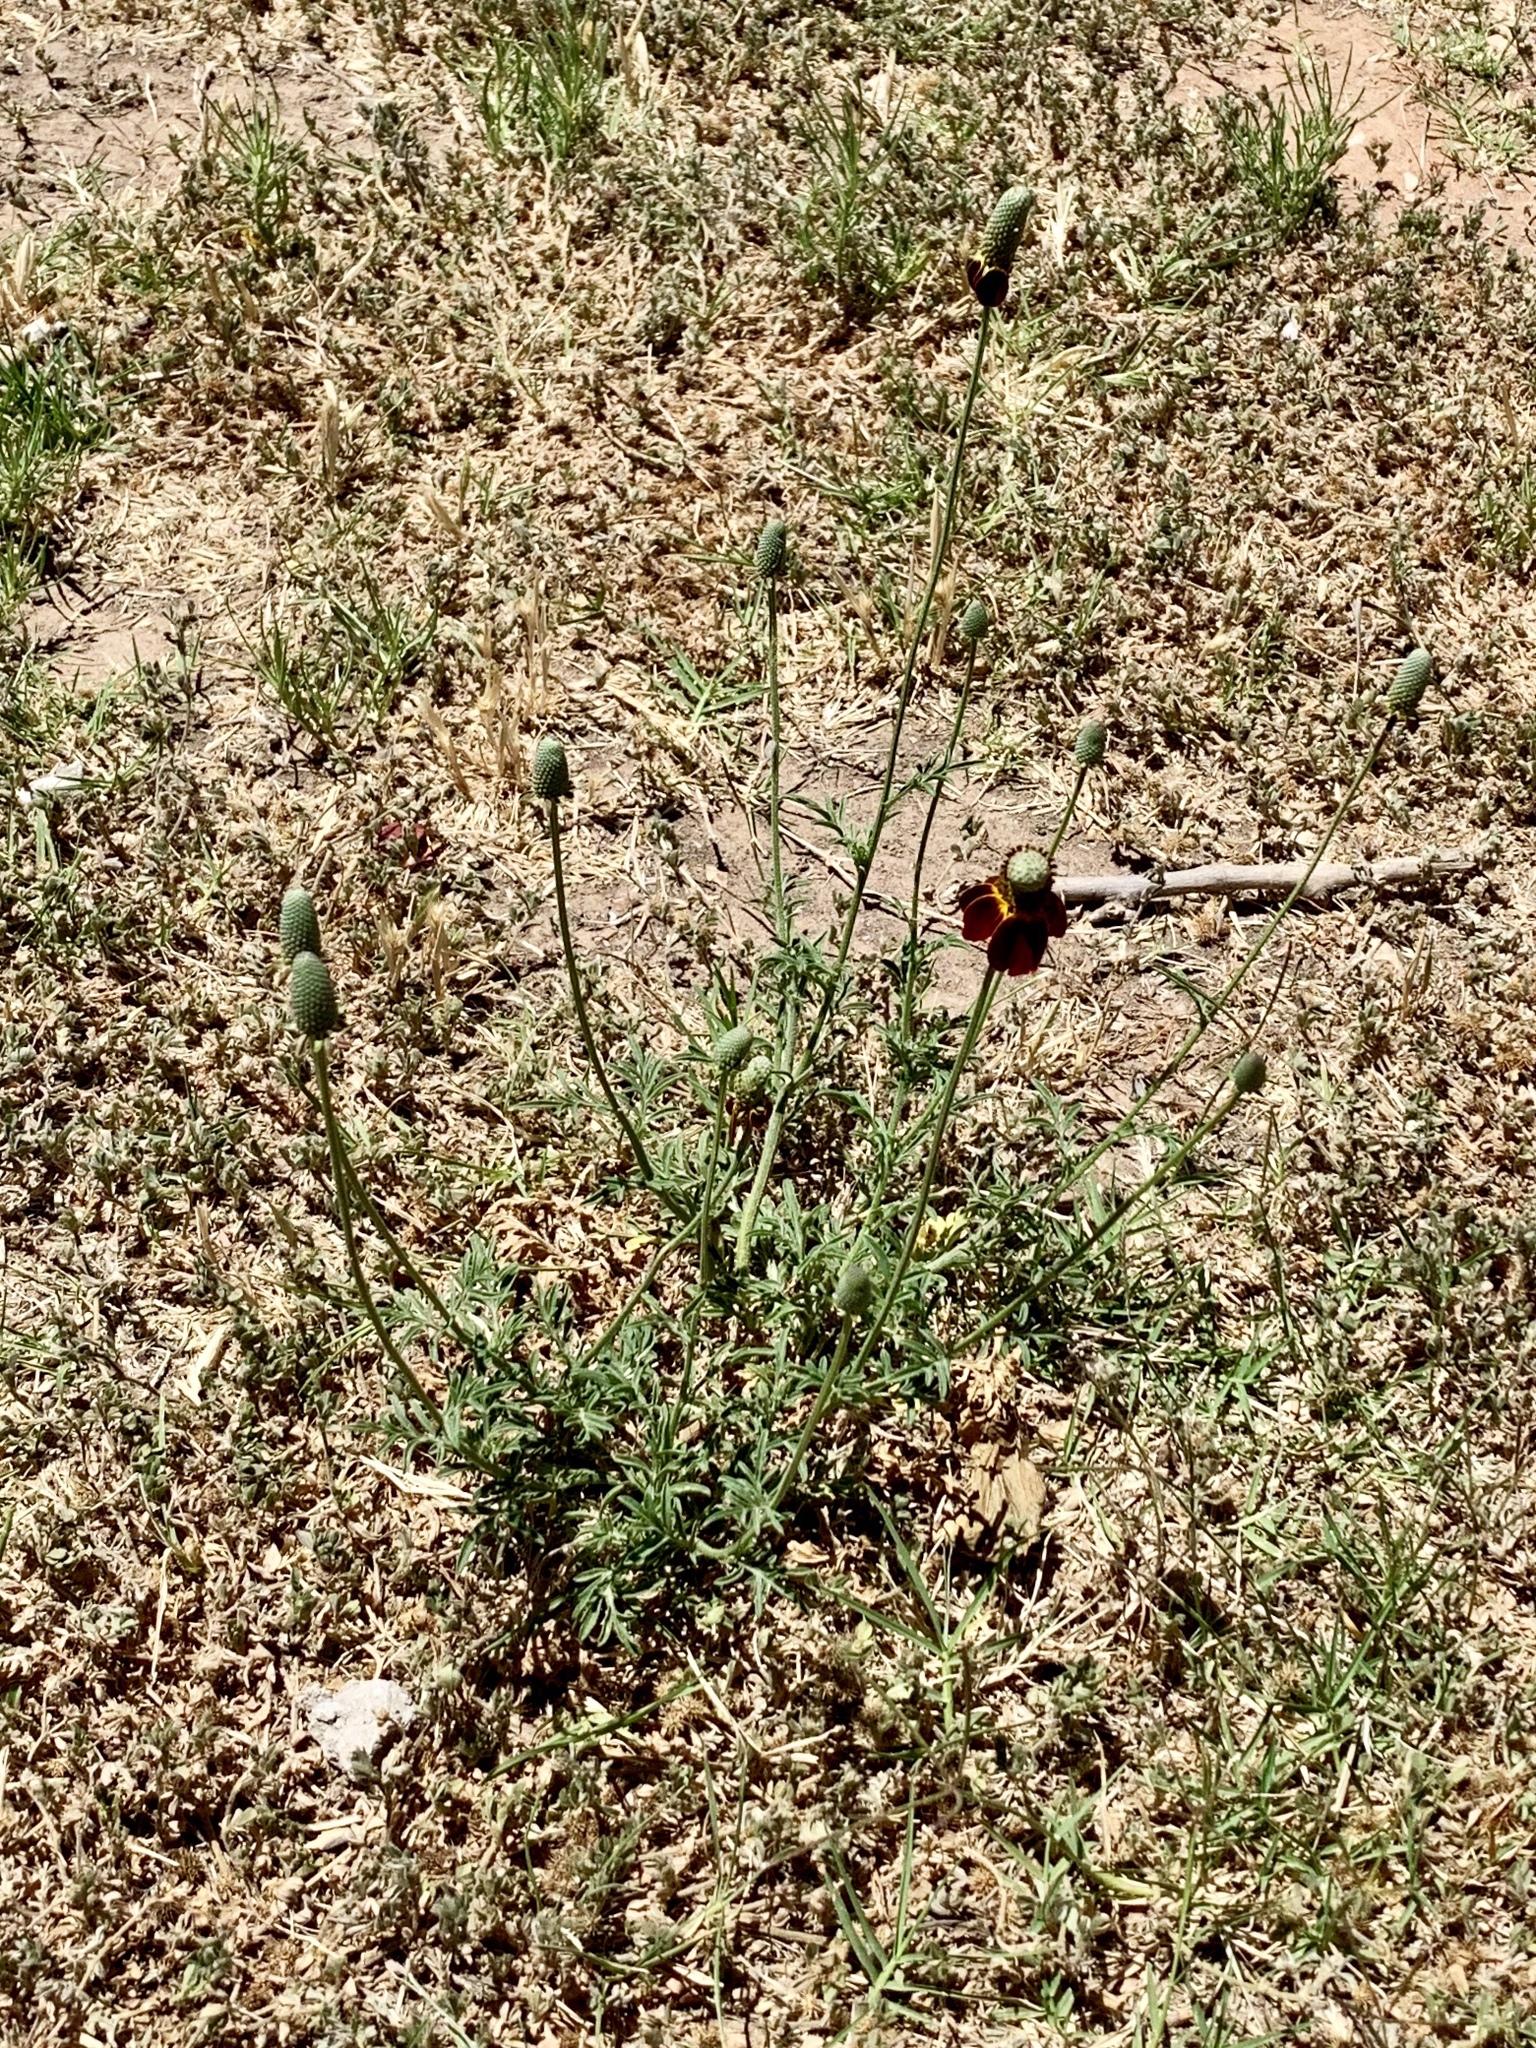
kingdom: Plantae
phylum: Tracheophyta
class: Magnoliopsida
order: Asterales
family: Asteraceae
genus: Ratibida
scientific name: Ratibida columnifera
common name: Prairie coneflower
